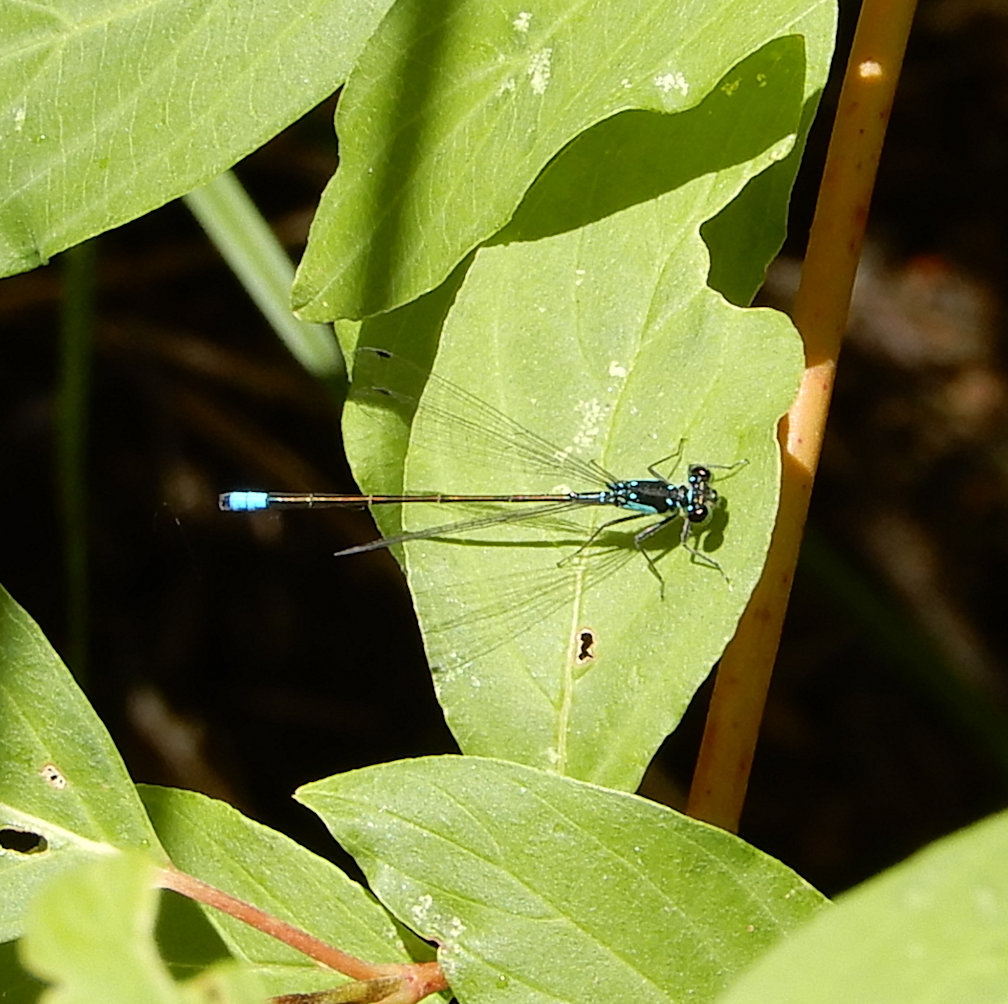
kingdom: Animalia
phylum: Arthropoda
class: Insecta
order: Odonata
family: Coenagrionidae
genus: Ischnura
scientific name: Ischnura cervula
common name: Pacific forktail
